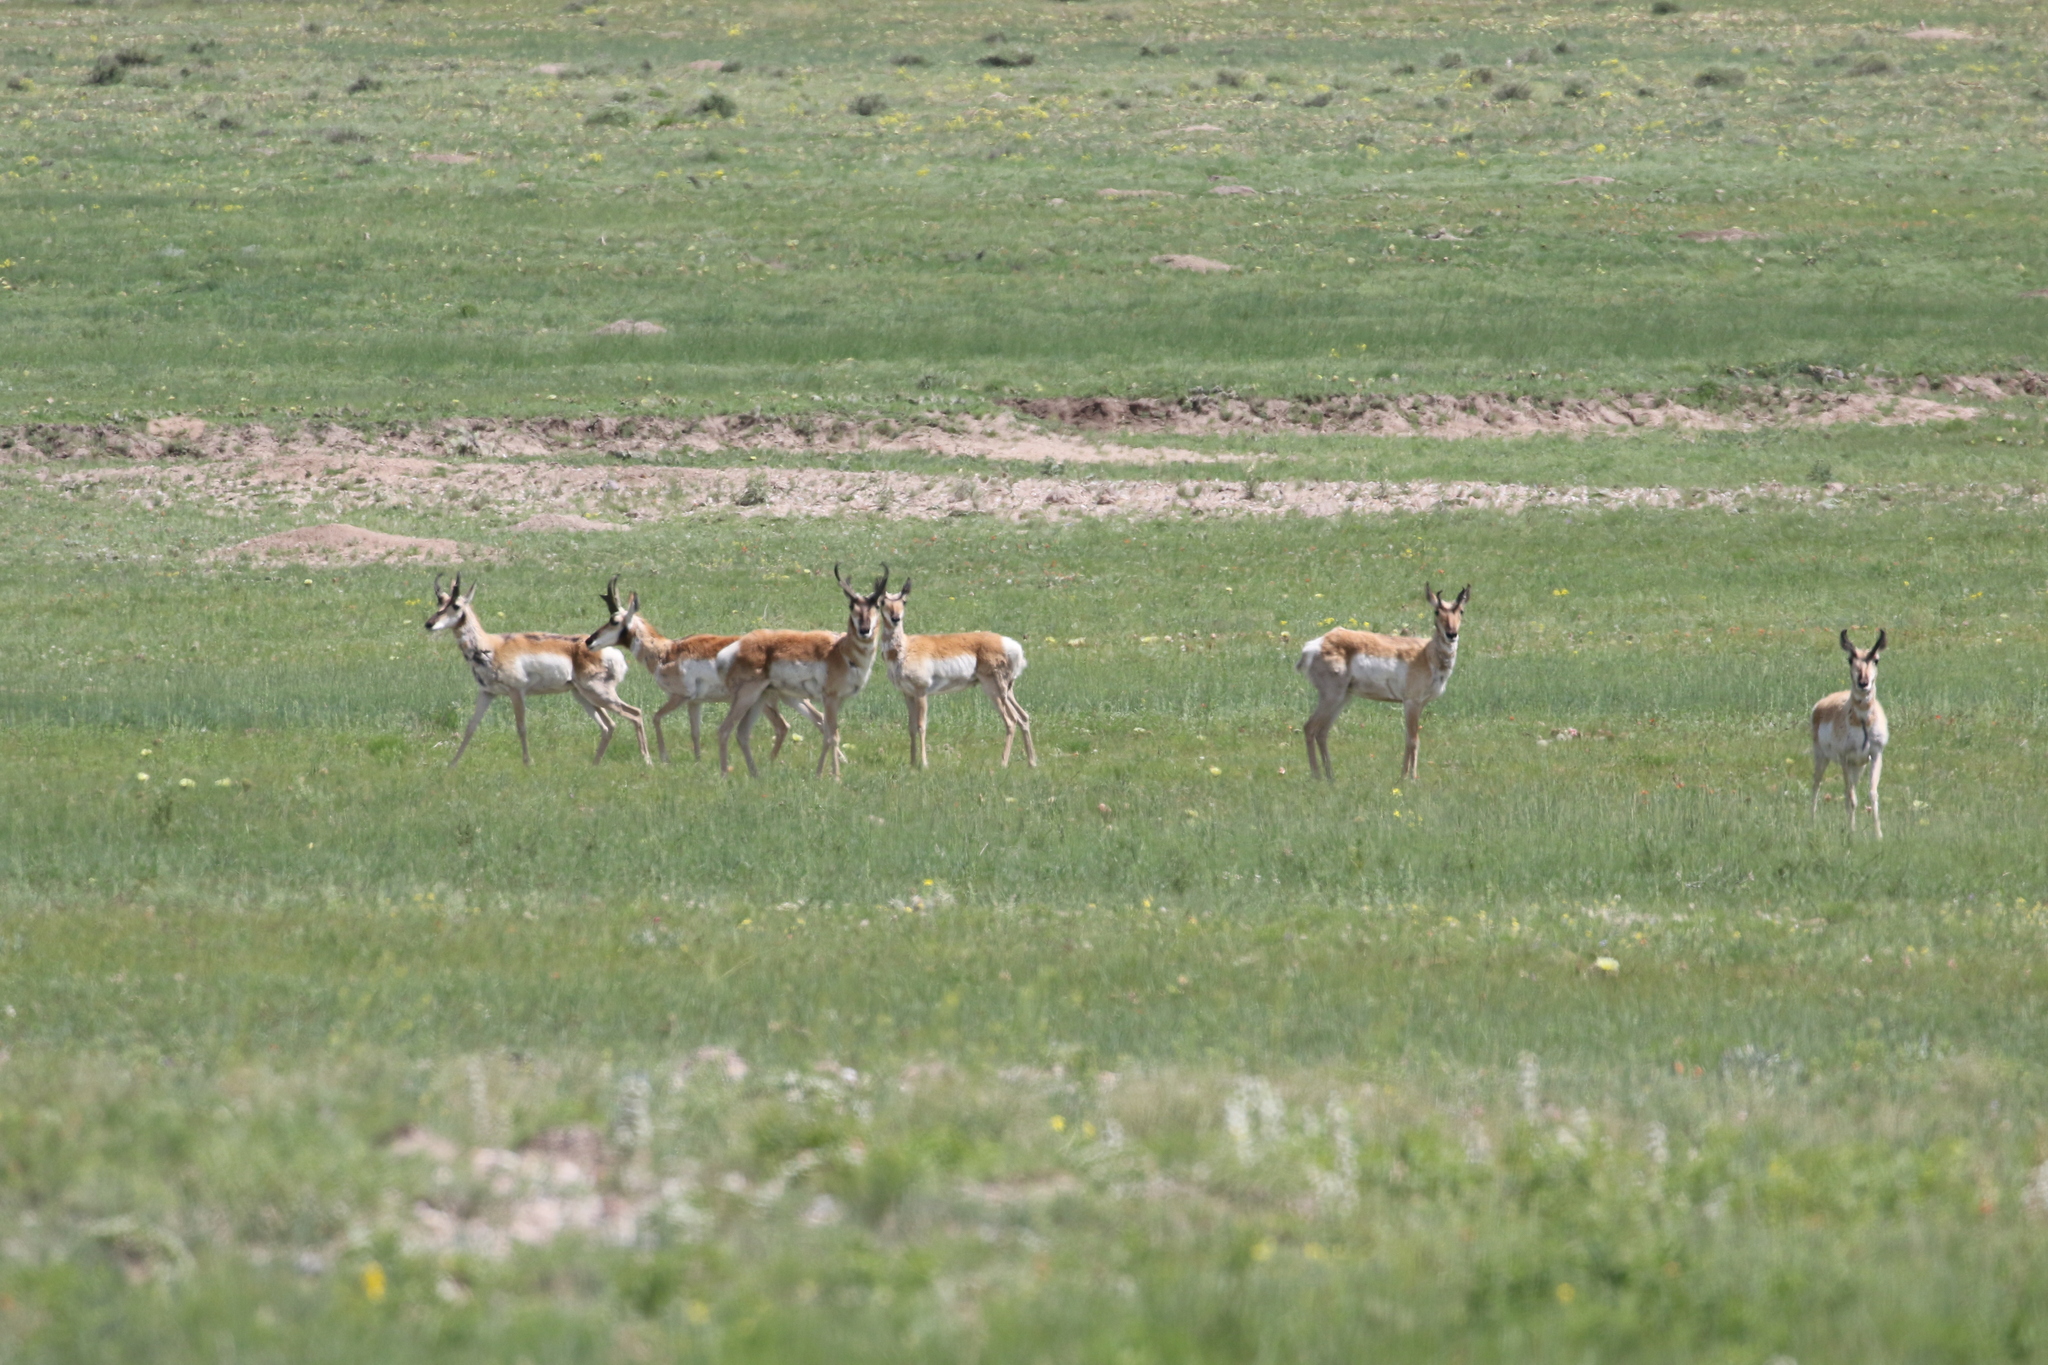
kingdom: Animalia
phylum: Chordata
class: Mammalia
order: Artiodactyla
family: Antilocapridae
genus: Antilocapra
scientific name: Antilocapra americana
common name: Pronghorn
